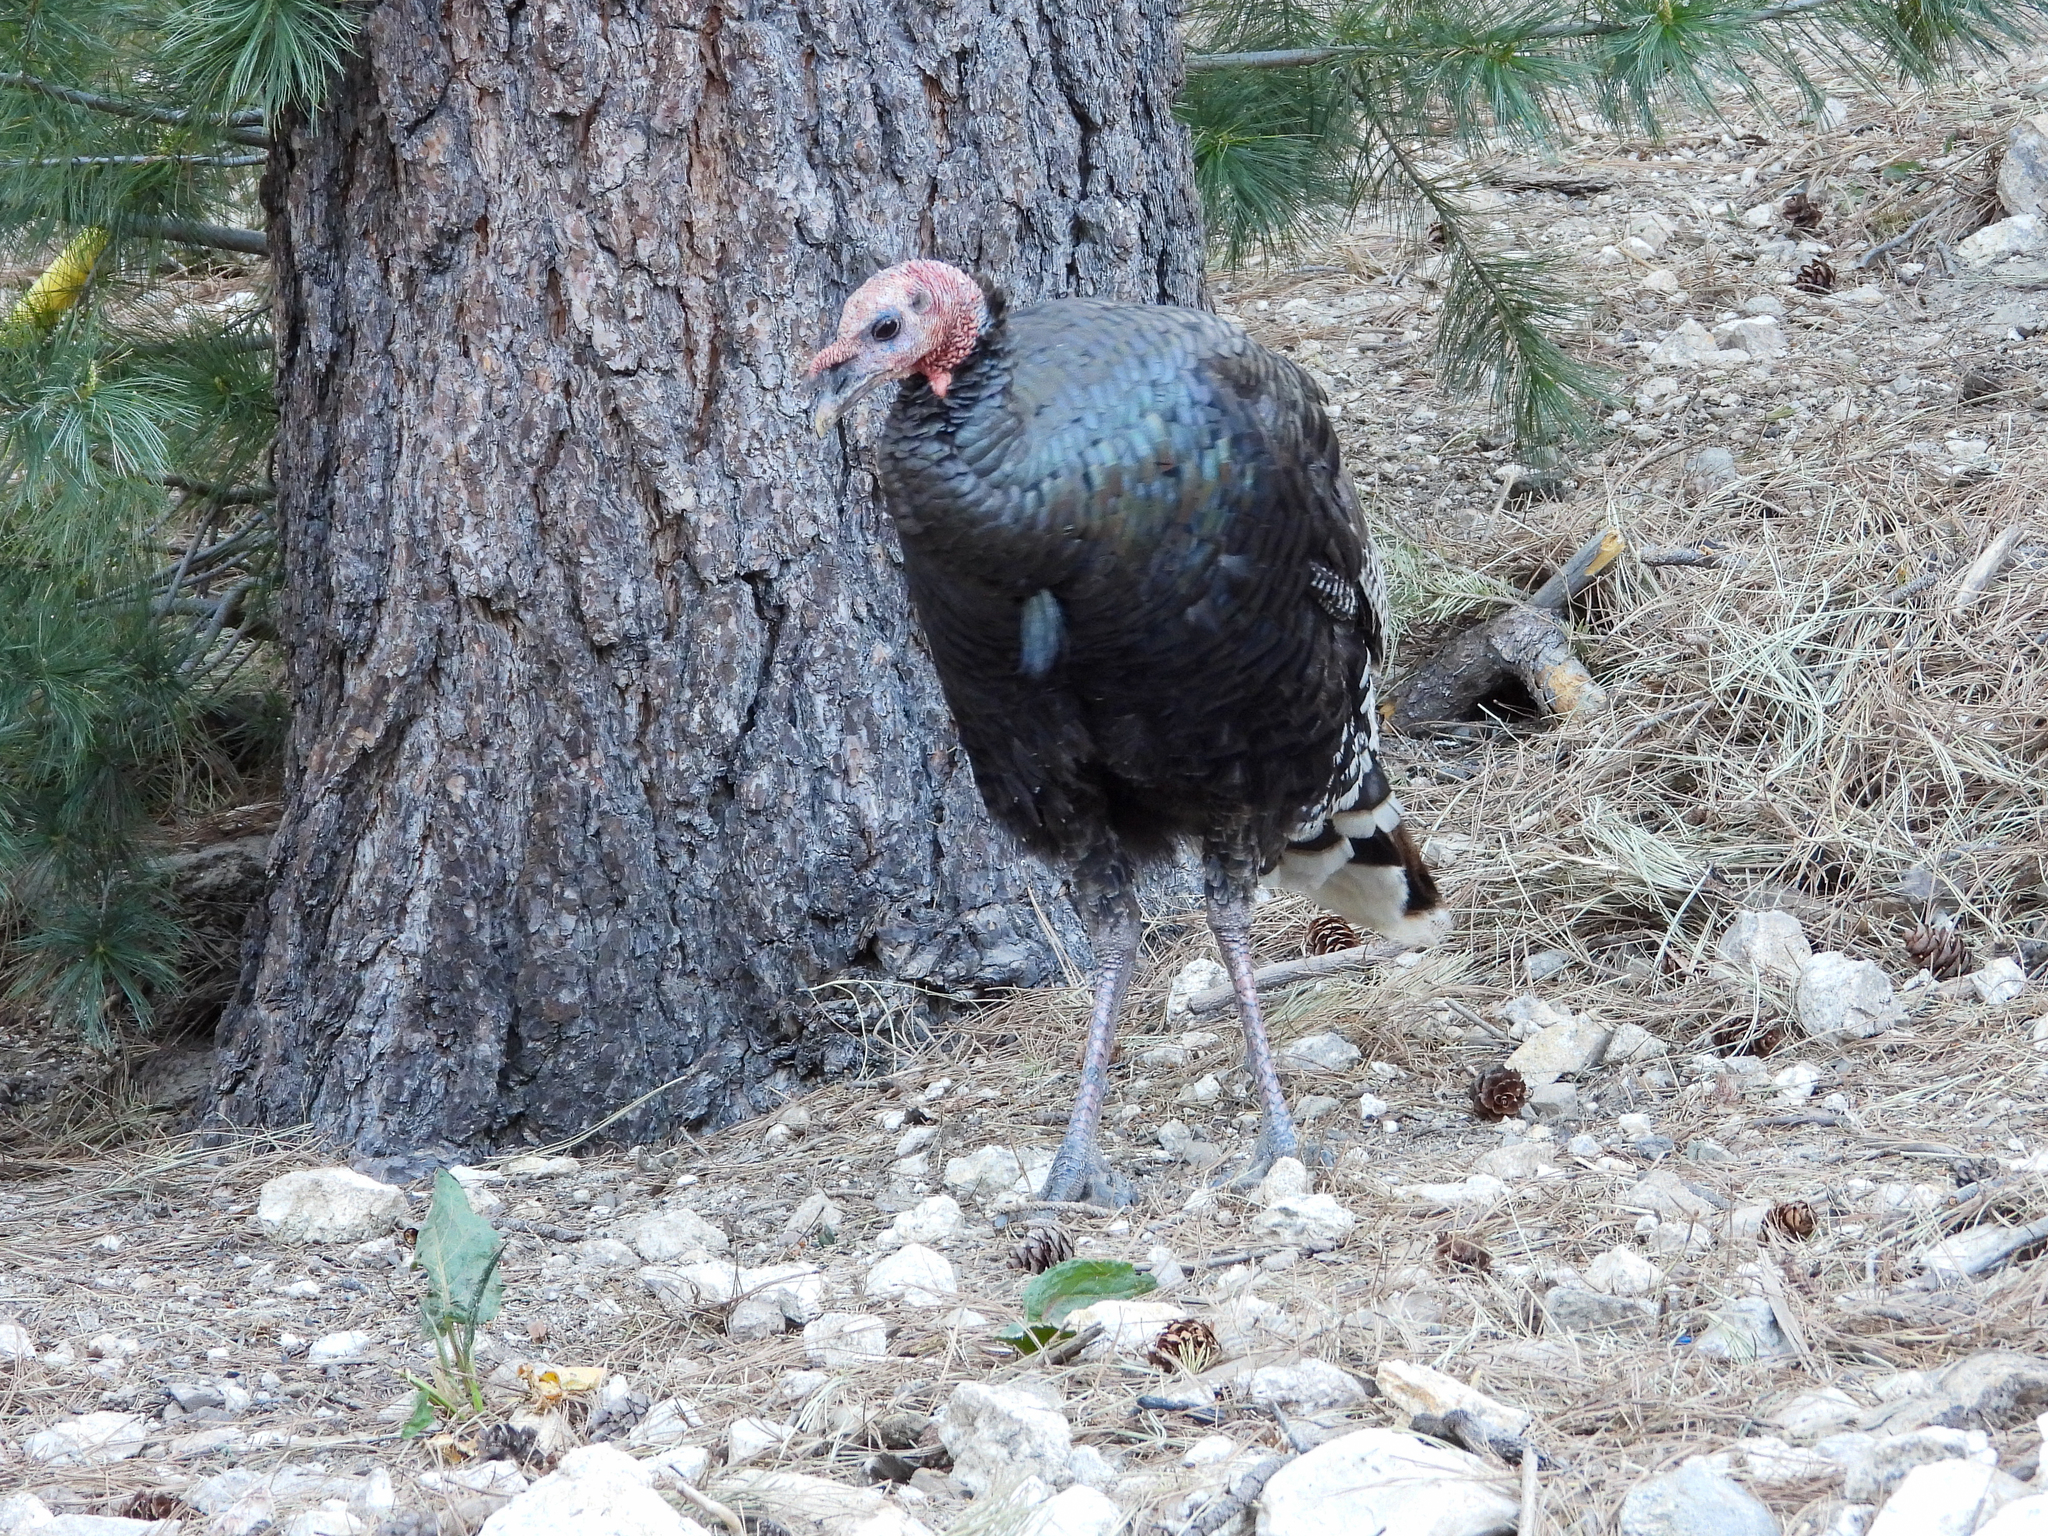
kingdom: Animalia
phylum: Chordata
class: Aves
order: Galliformes
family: Phasianidae
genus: Meleagris
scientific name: Meleagris gallopavo
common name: Wild turkey
